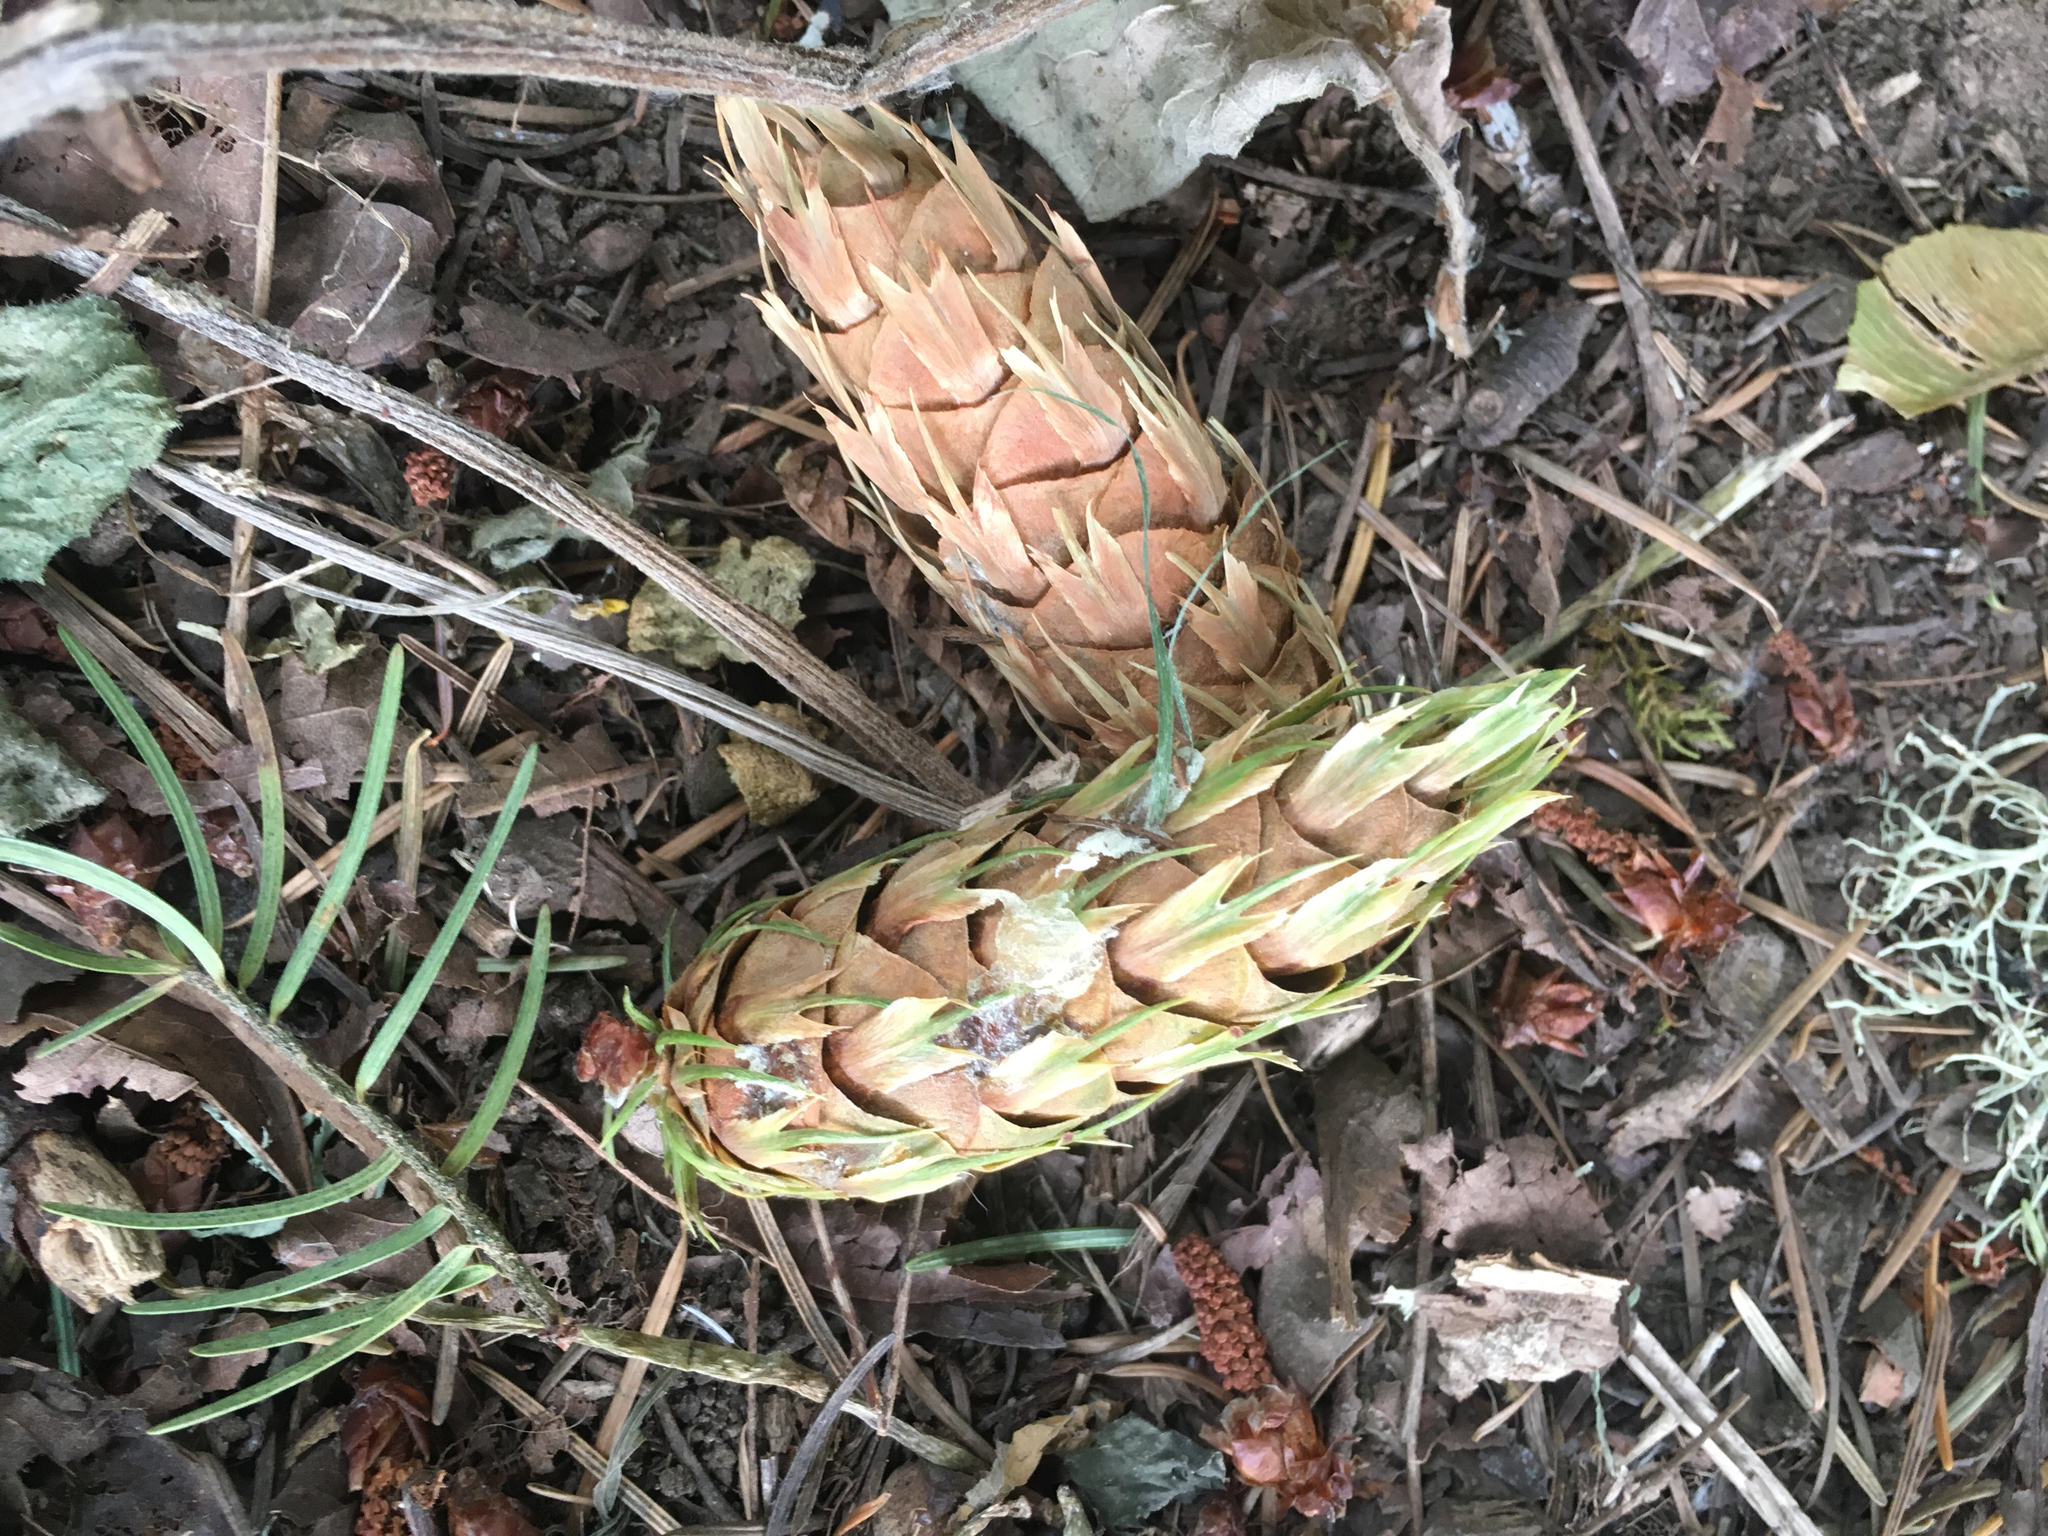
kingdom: Plantae
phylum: Tracheophyta
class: Pinopsida
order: Pinales
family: Pinaceae
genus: Pseudotsuga
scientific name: Pseudotsuga menziesii
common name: Douglas fir
